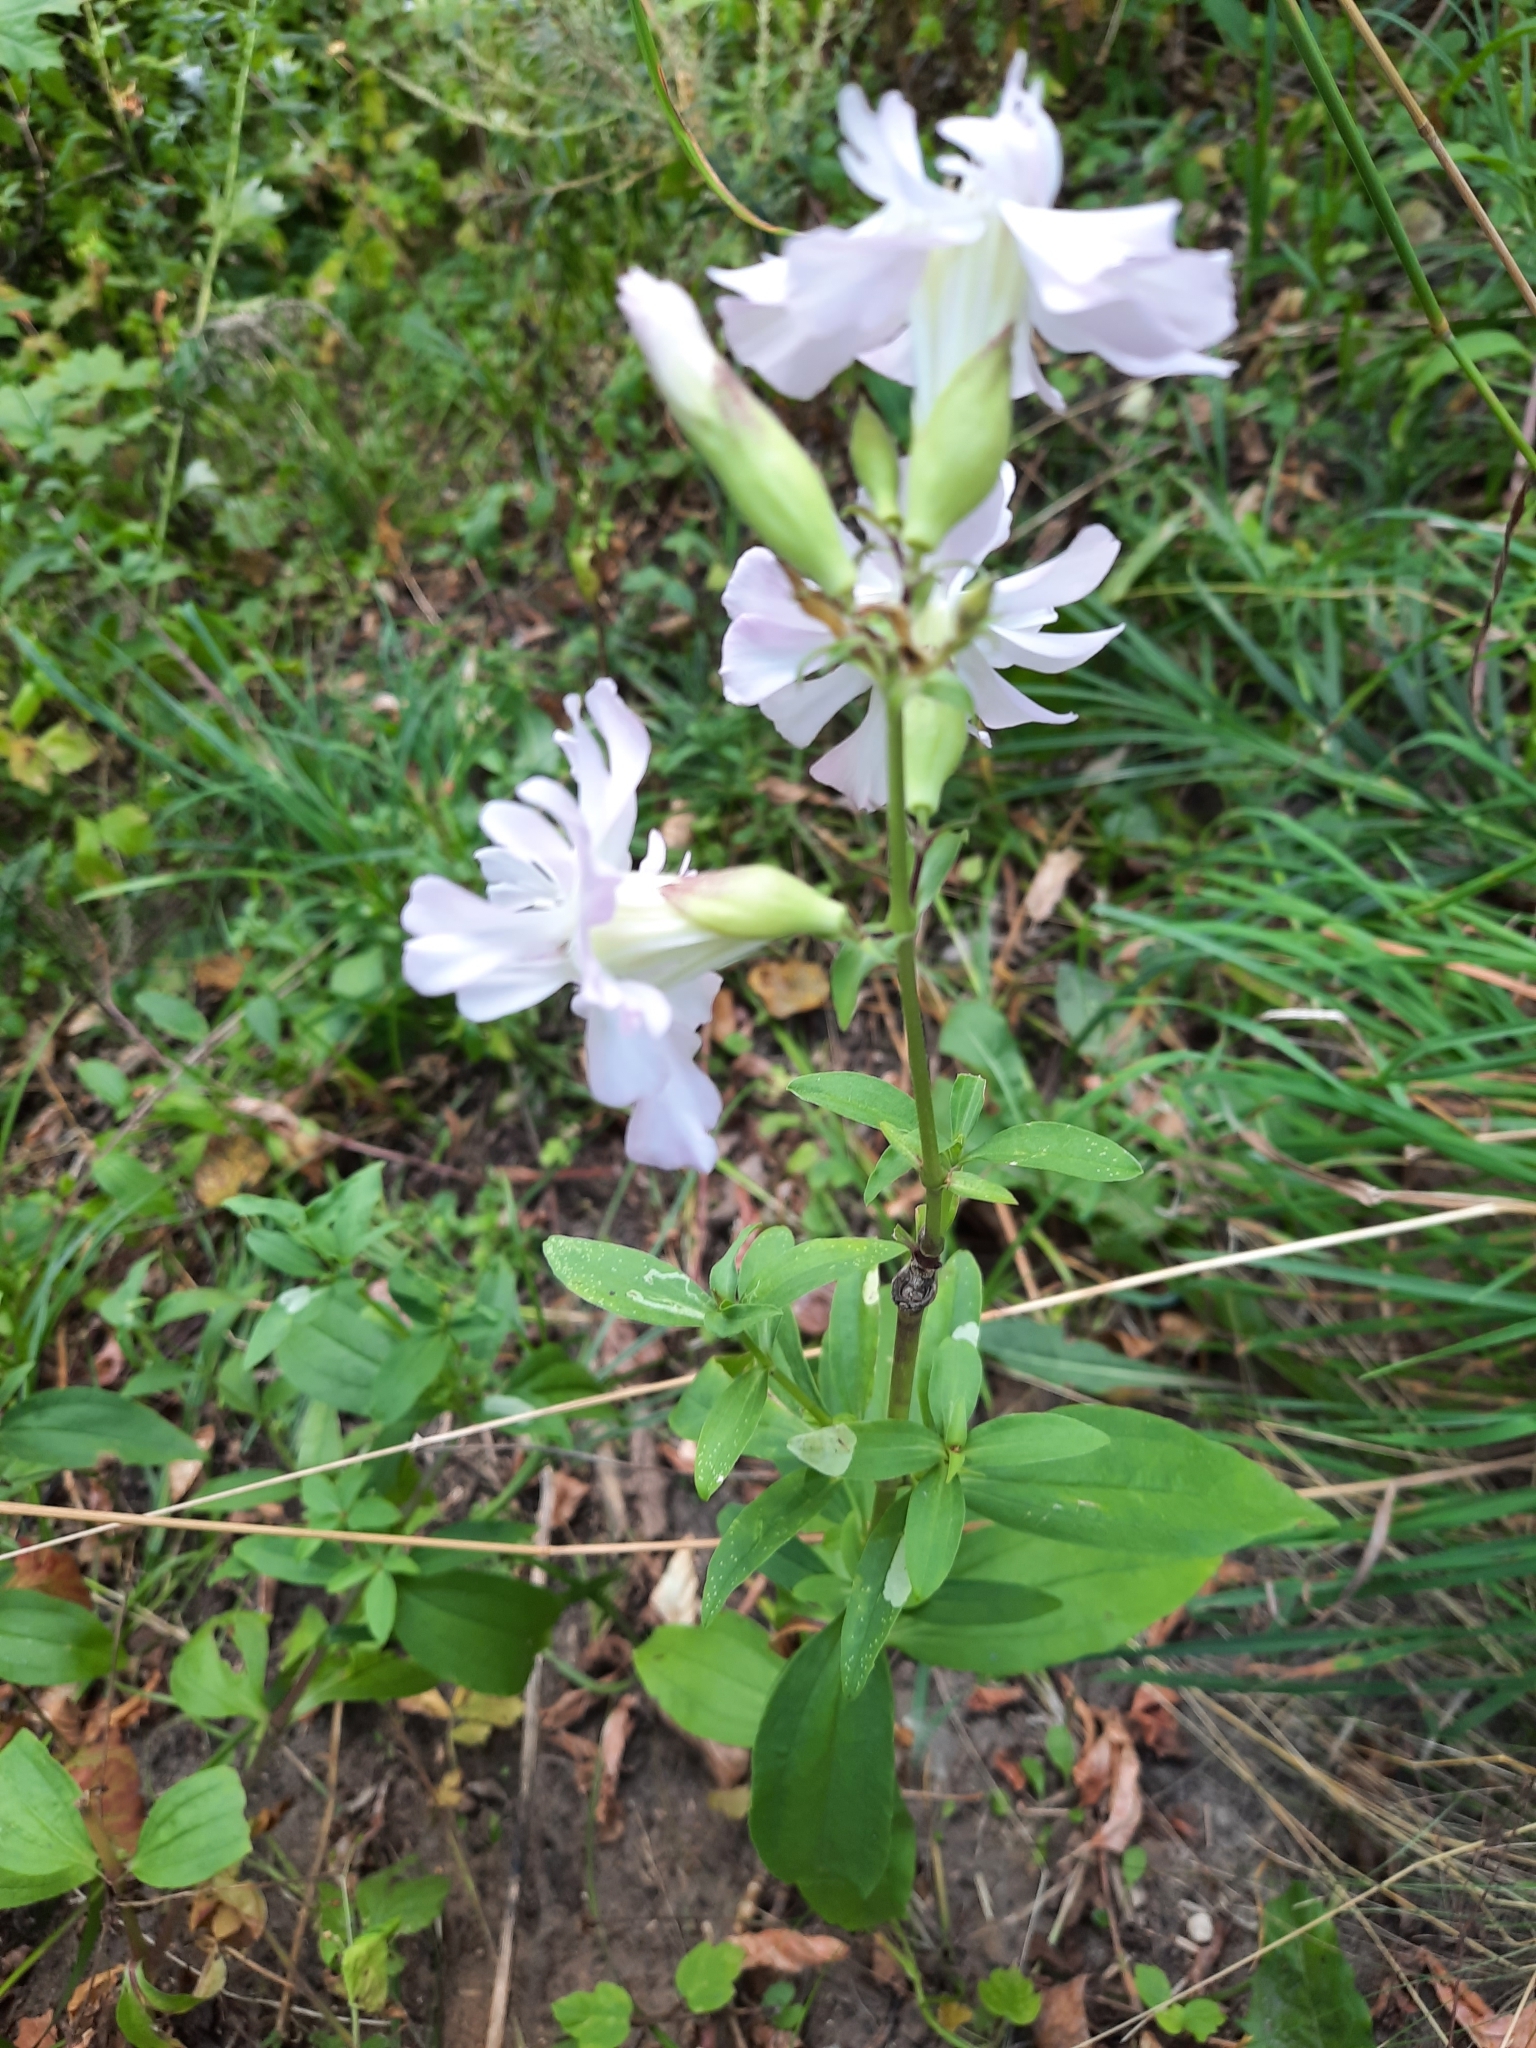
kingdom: Plantae
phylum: Tracheophyta
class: Magnoliopsida
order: Caryophyllales
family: Caryophyllaceae
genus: Saponaria
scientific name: Saponaria officinalis
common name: Soapwort
